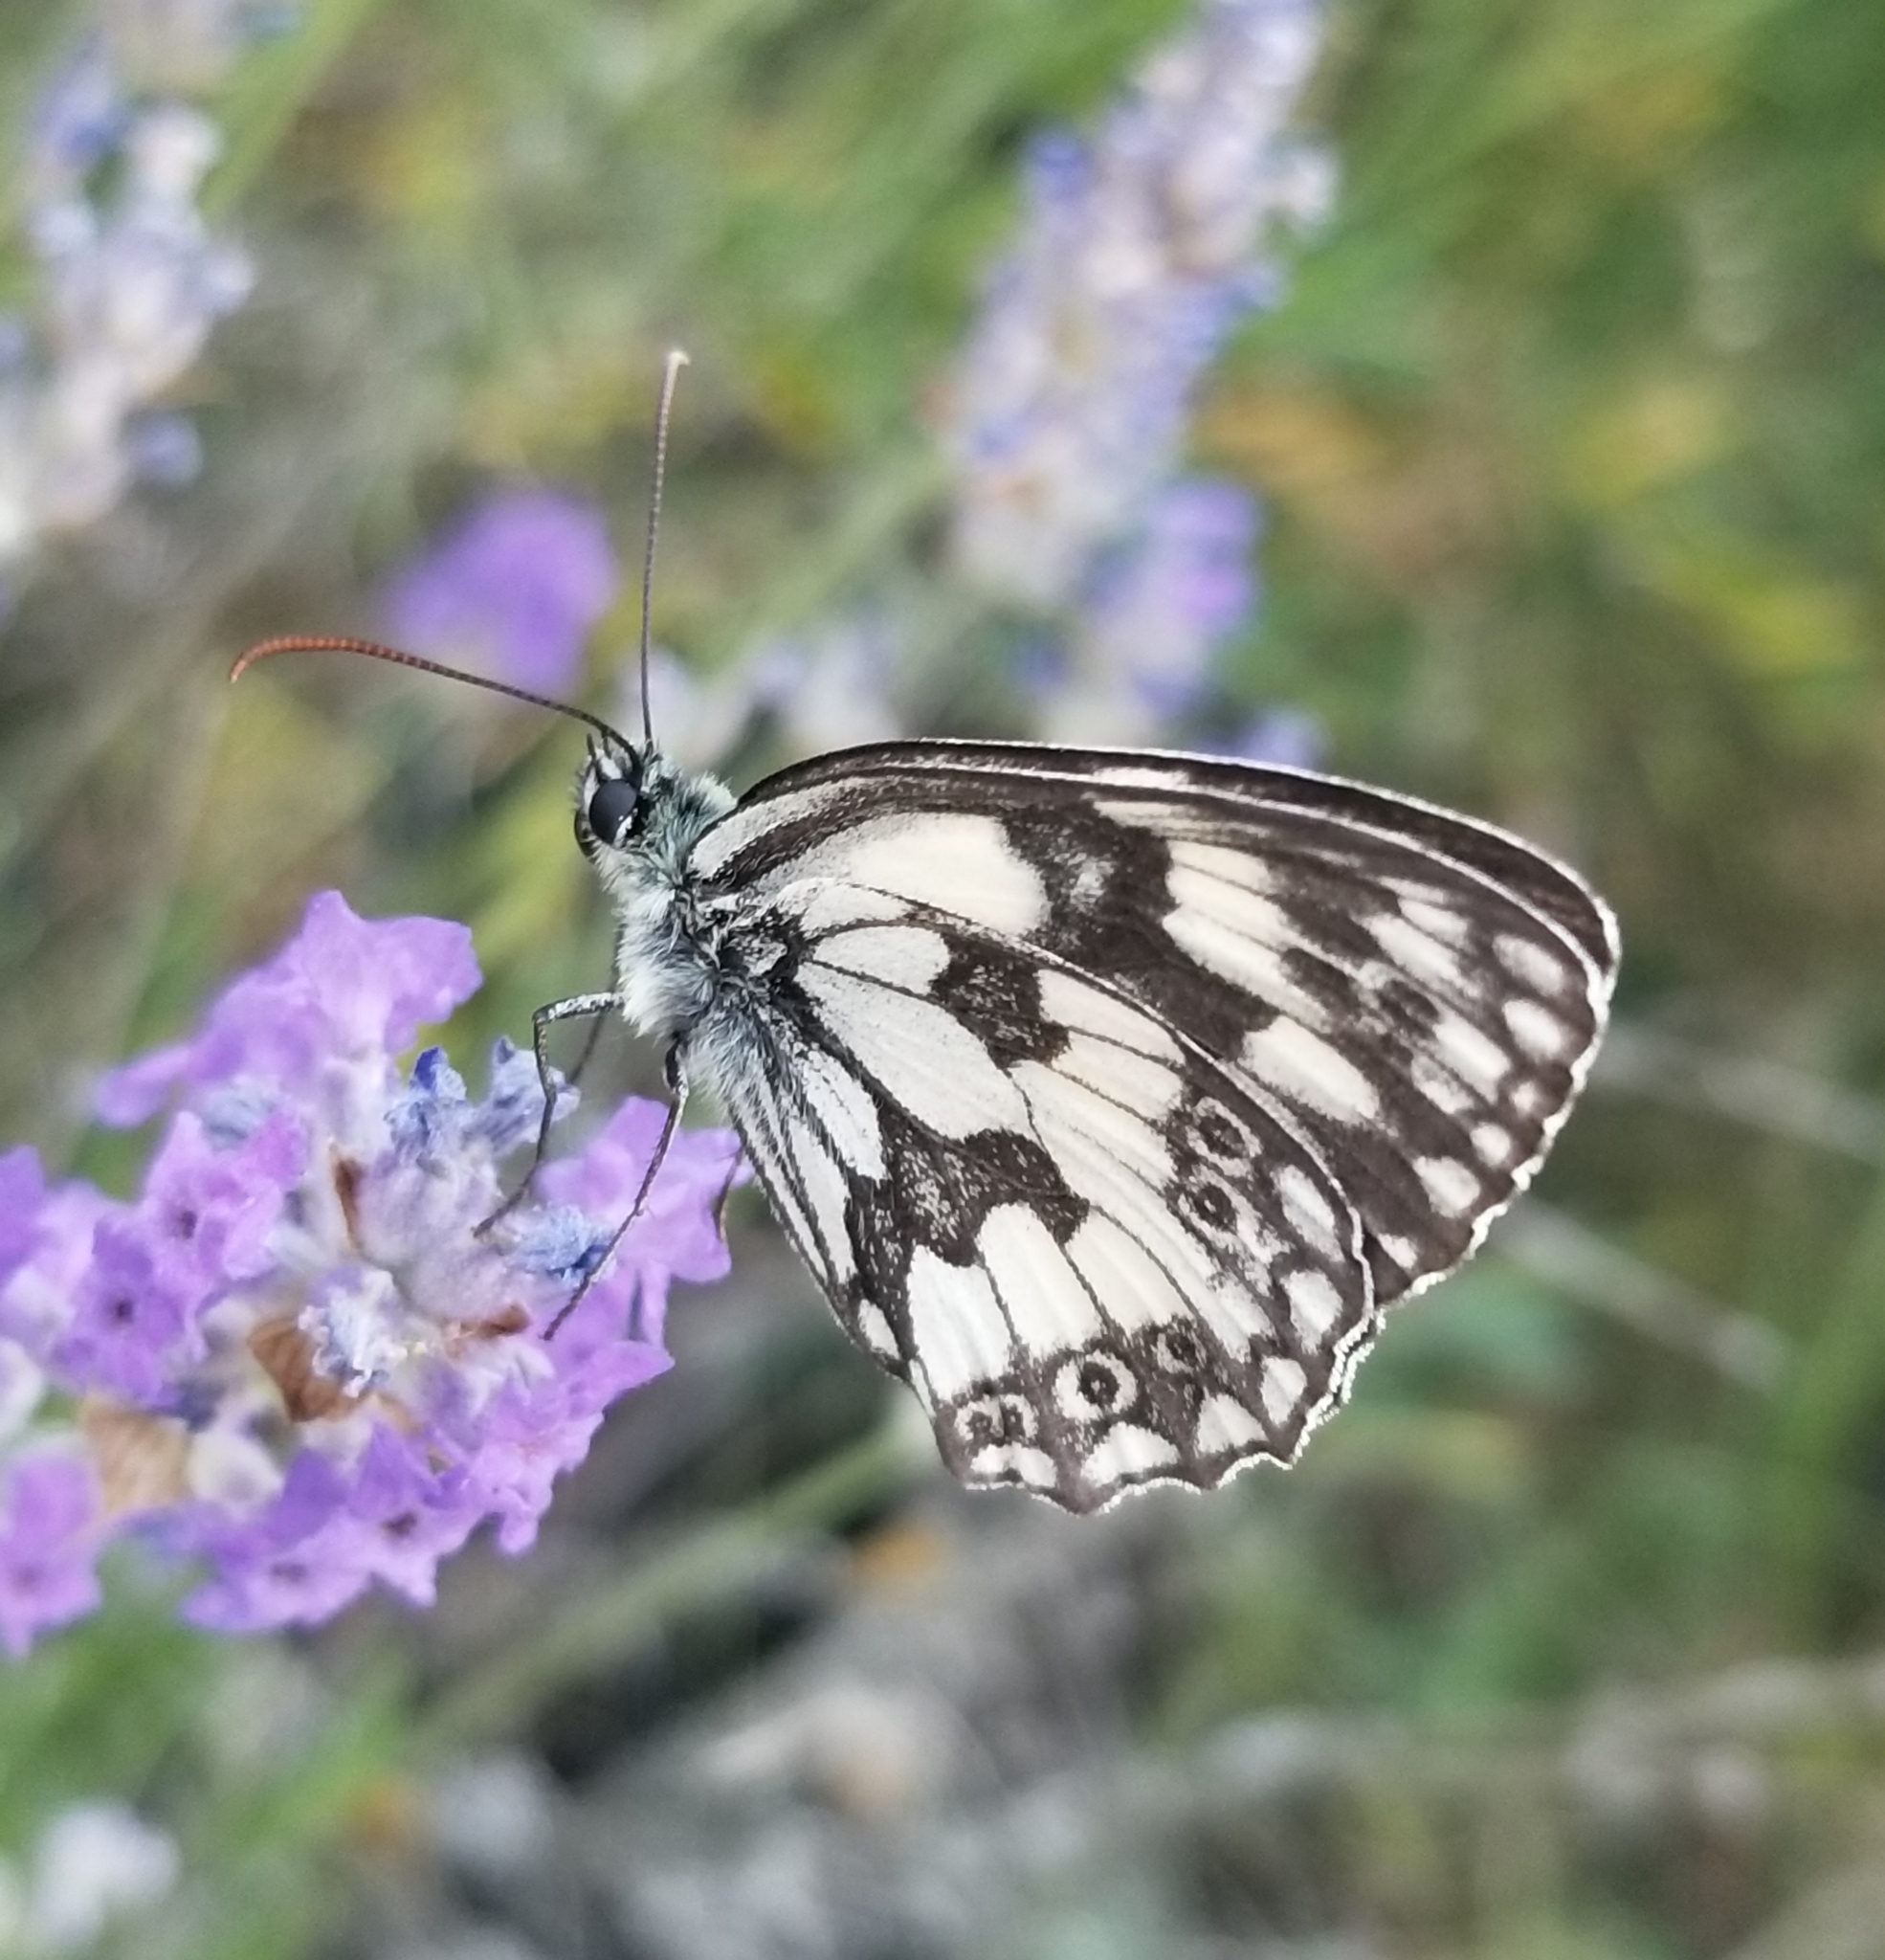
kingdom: Animalia
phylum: Arthropoda
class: Insecta
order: Lepidoptera
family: Nymphalidae
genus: Melanargia
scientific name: Melanargia galathea
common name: Marbled white
